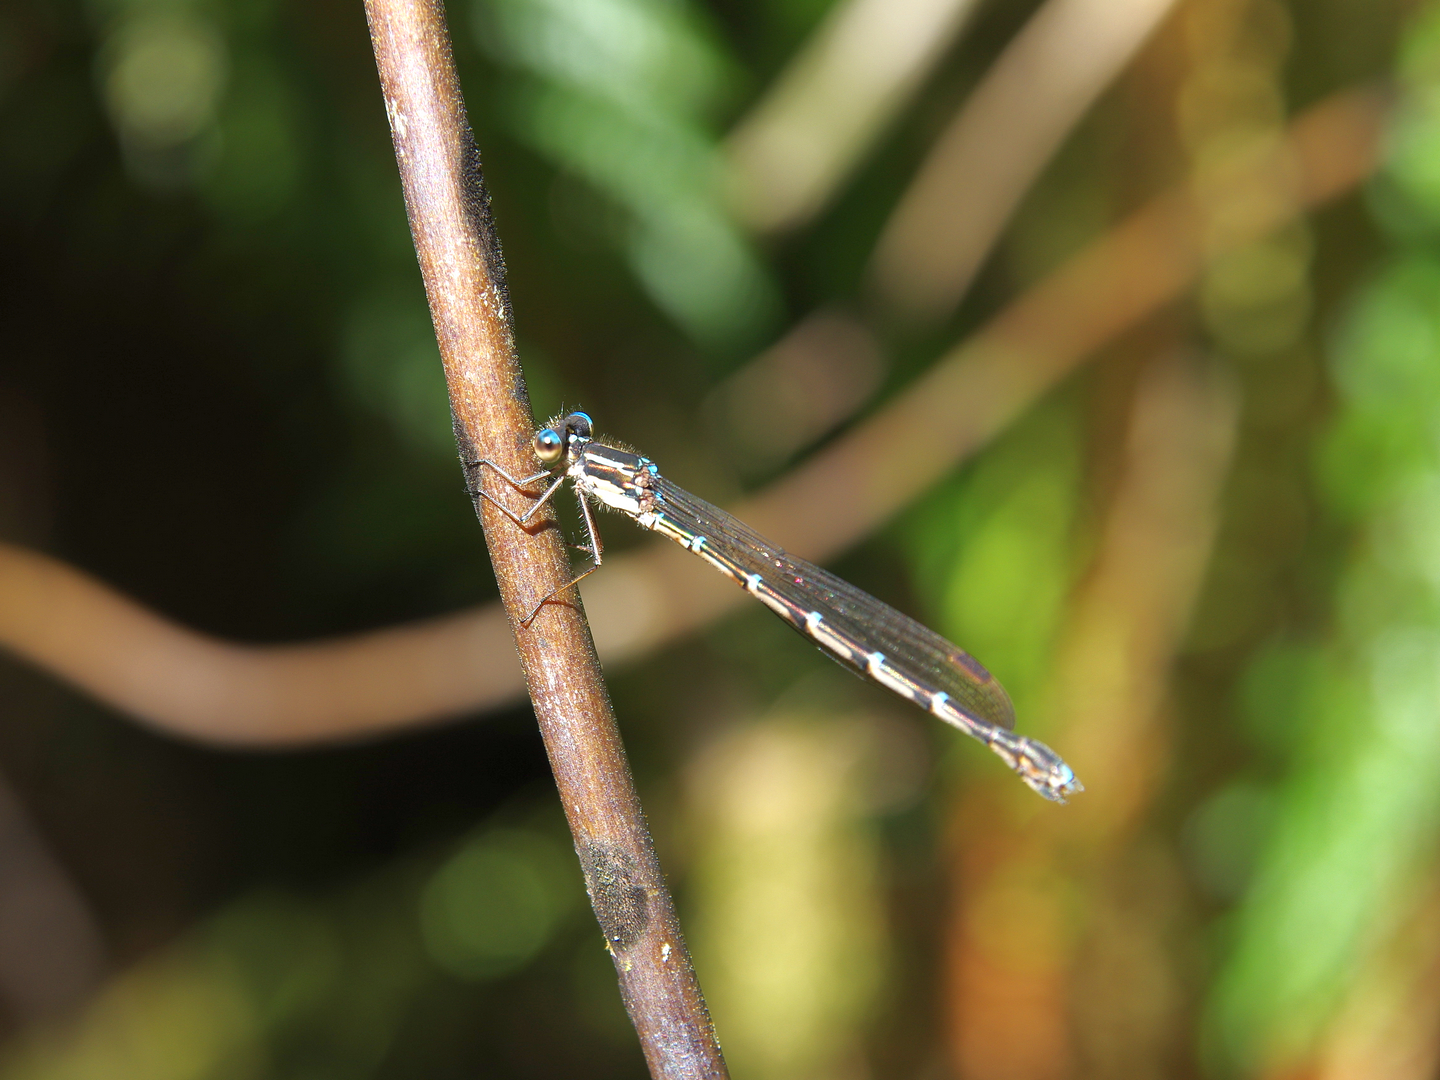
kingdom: Animalia
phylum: Arthropoda
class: Insecta
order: Odonata
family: Lestidae
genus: Austrolestes
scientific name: Austrolestes colensonis
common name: Blue damselfly
